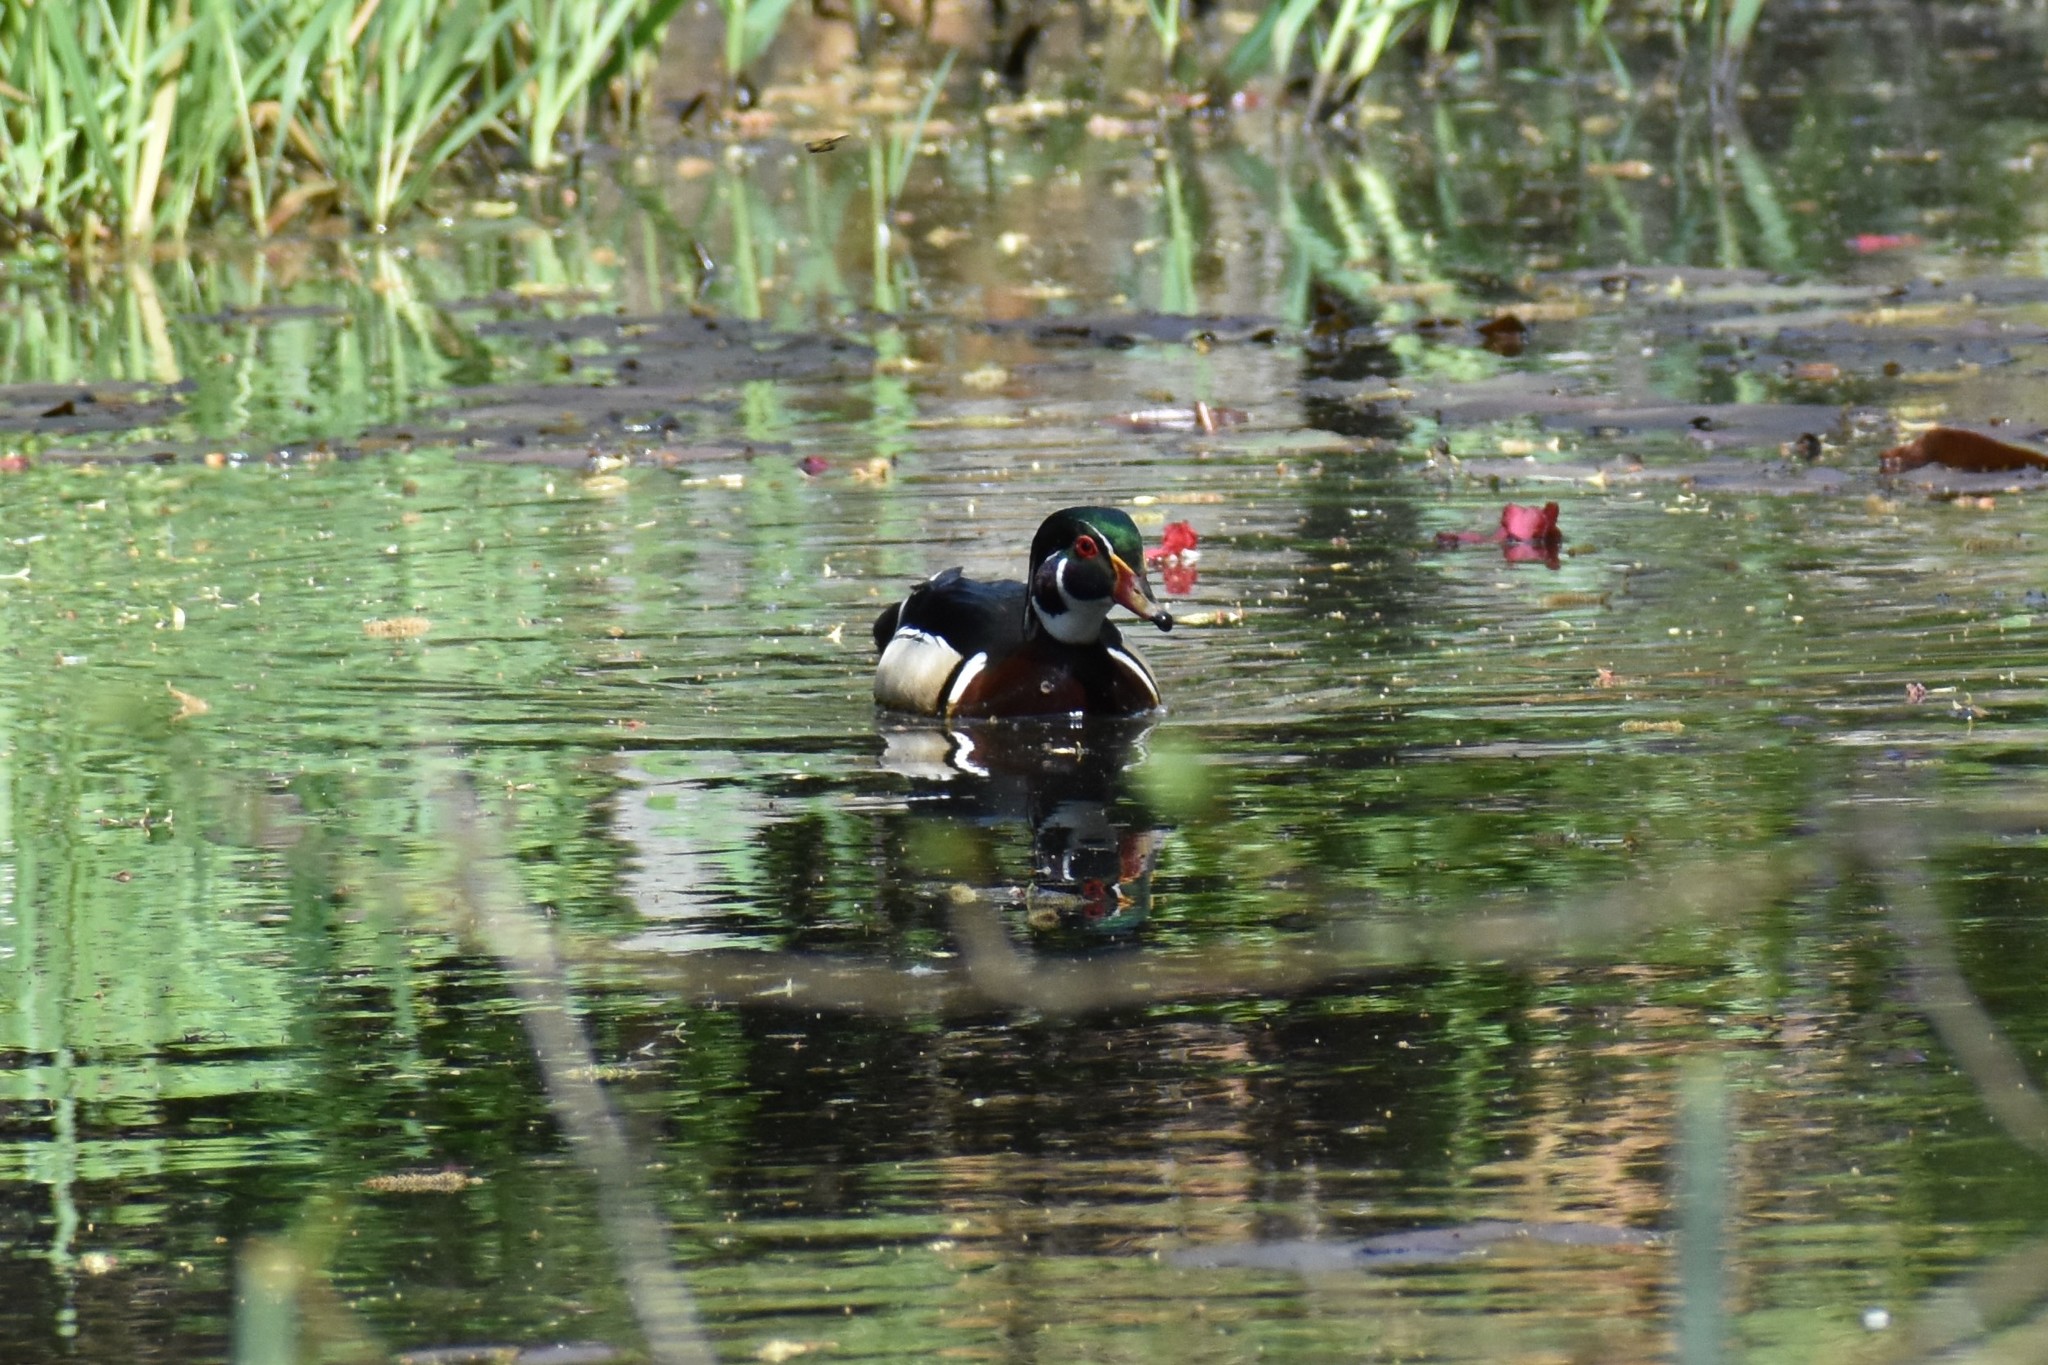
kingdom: Animalia
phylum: Chordata
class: Aves
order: Anseriformes
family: Anatidae
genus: Aix
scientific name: Aix sponsa
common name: Wood duck
